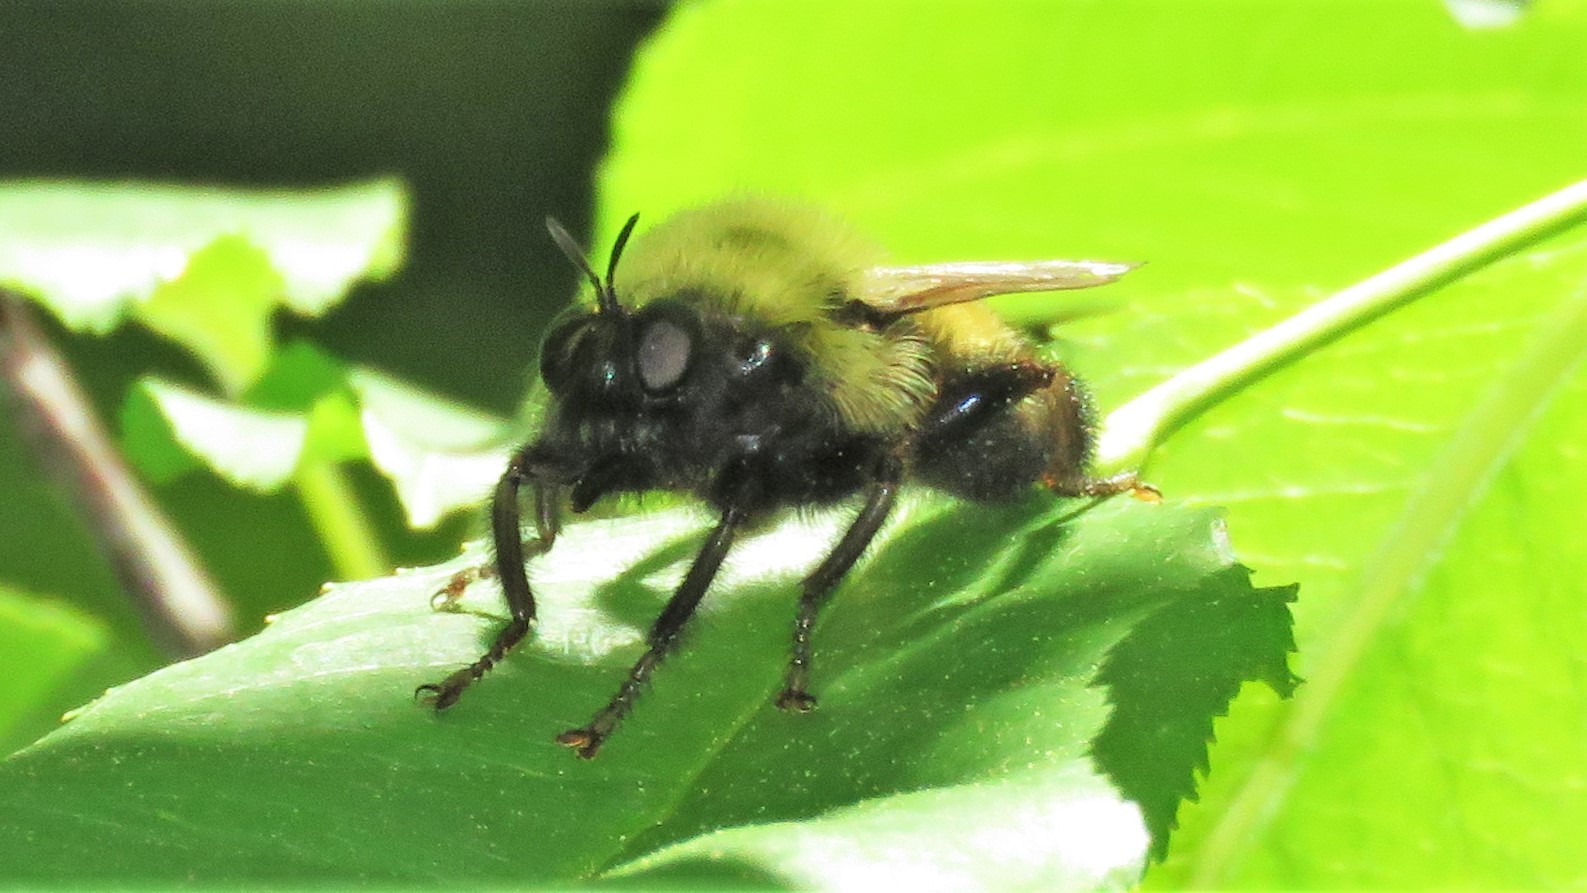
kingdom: Animalia
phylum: Arthropoda
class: Insecta
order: Diptera
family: Asilidae
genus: Laphria
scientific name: Laphria thoracica
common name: Bumble bee mimic robber fly
